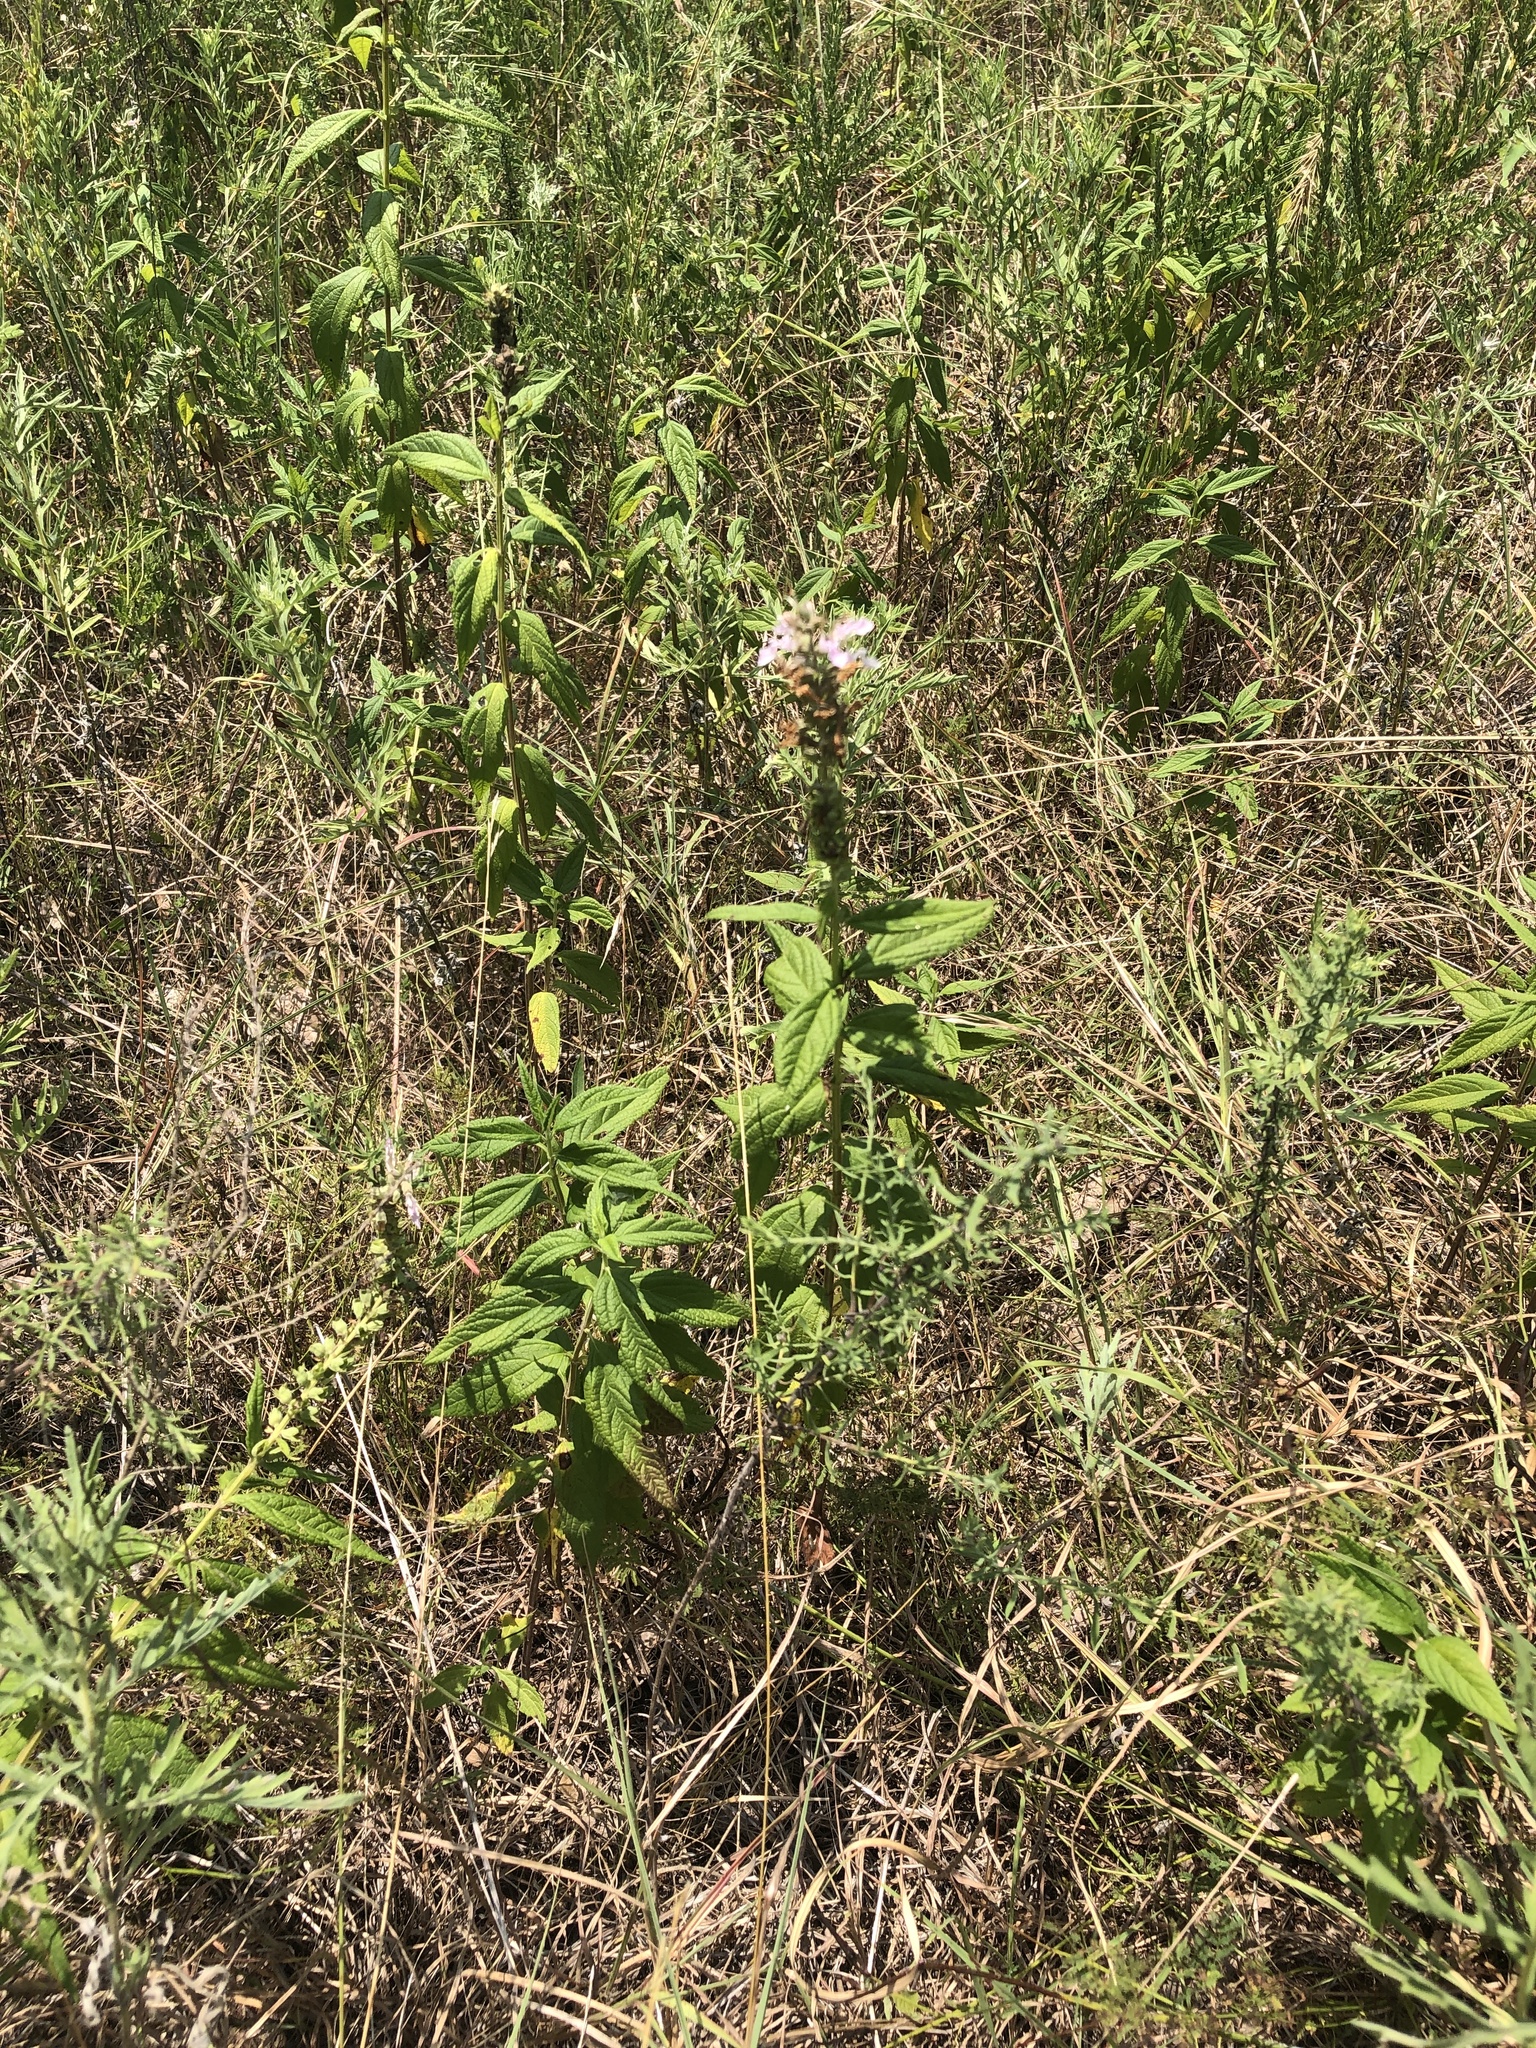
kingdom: Plantae
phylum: Tracheophyta
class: Magnoliopsida
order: Lamiales
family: Lamiaceae
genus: Teucrium
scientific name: Teucrium canadense
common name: American germander
